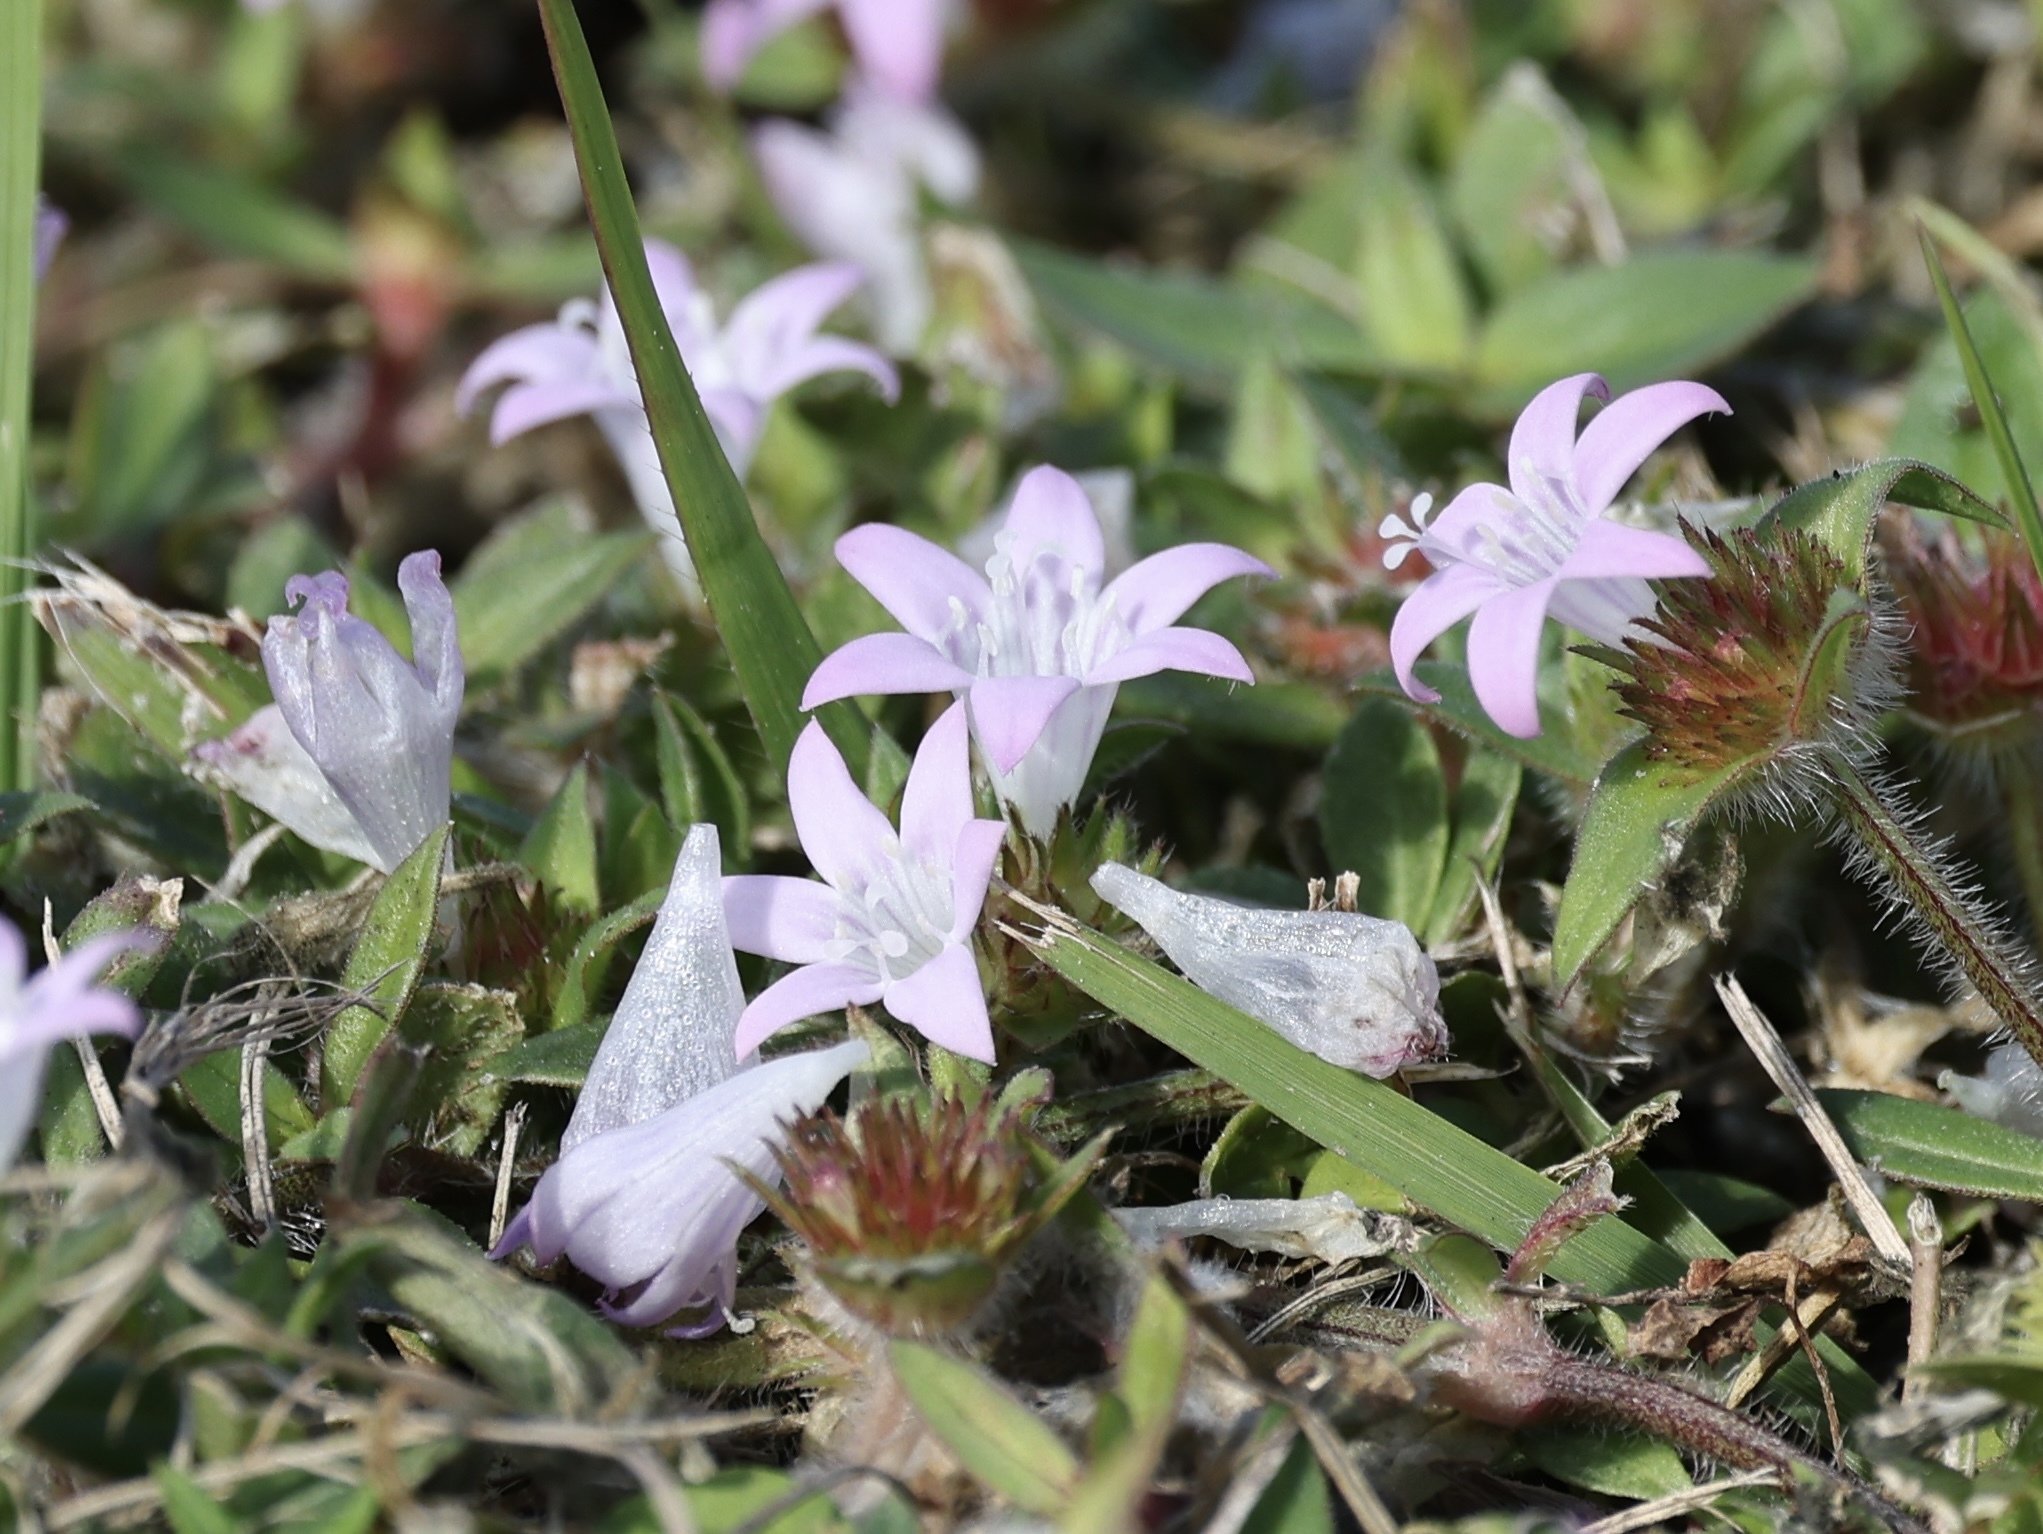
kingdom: Plantae
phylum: Tracheophyta
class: Magnoliopsida
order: Gentianales
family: Rubiaceae
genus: Richardia
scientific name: Richardia grandiflora
